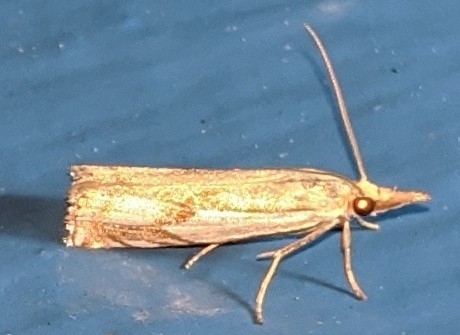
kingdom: Animalia
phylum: Arthropoda
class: Insecta
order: Lepidoptera
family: Crambidae
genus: Crambus
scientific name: Crambus agitatellus
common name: Double-banded grass-veneer
